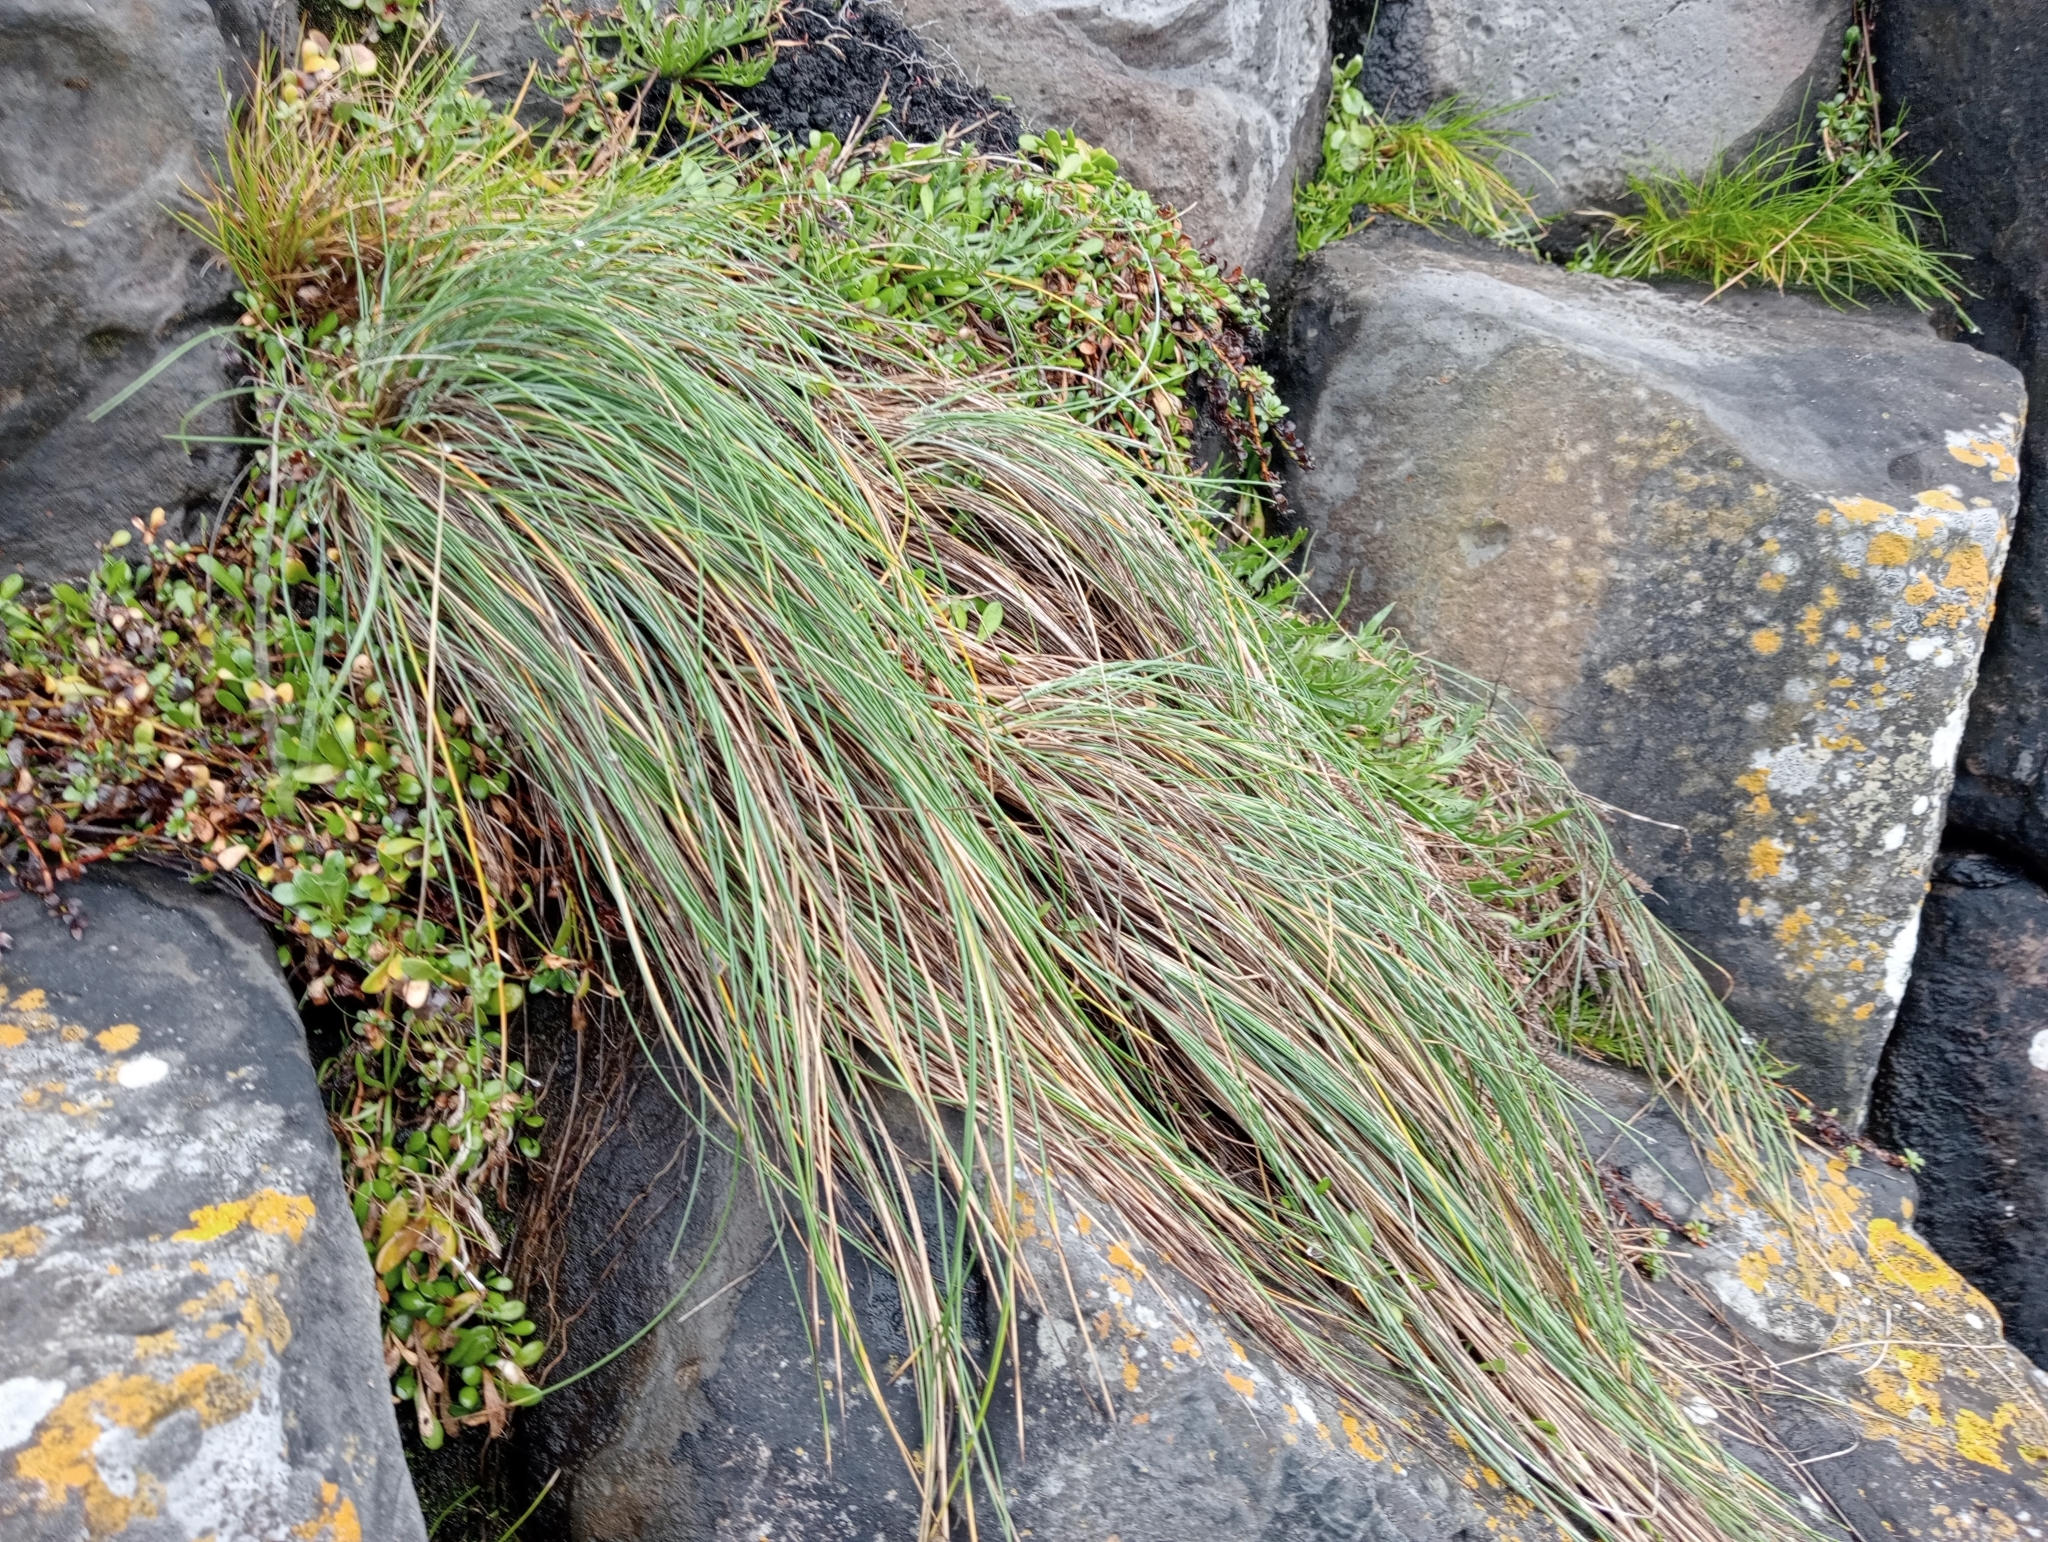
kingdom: Plantae
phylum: Tracheophyta
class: Liliopsida
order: Poales
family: Poaceae
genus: Festuca
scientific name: Festuca coxii
